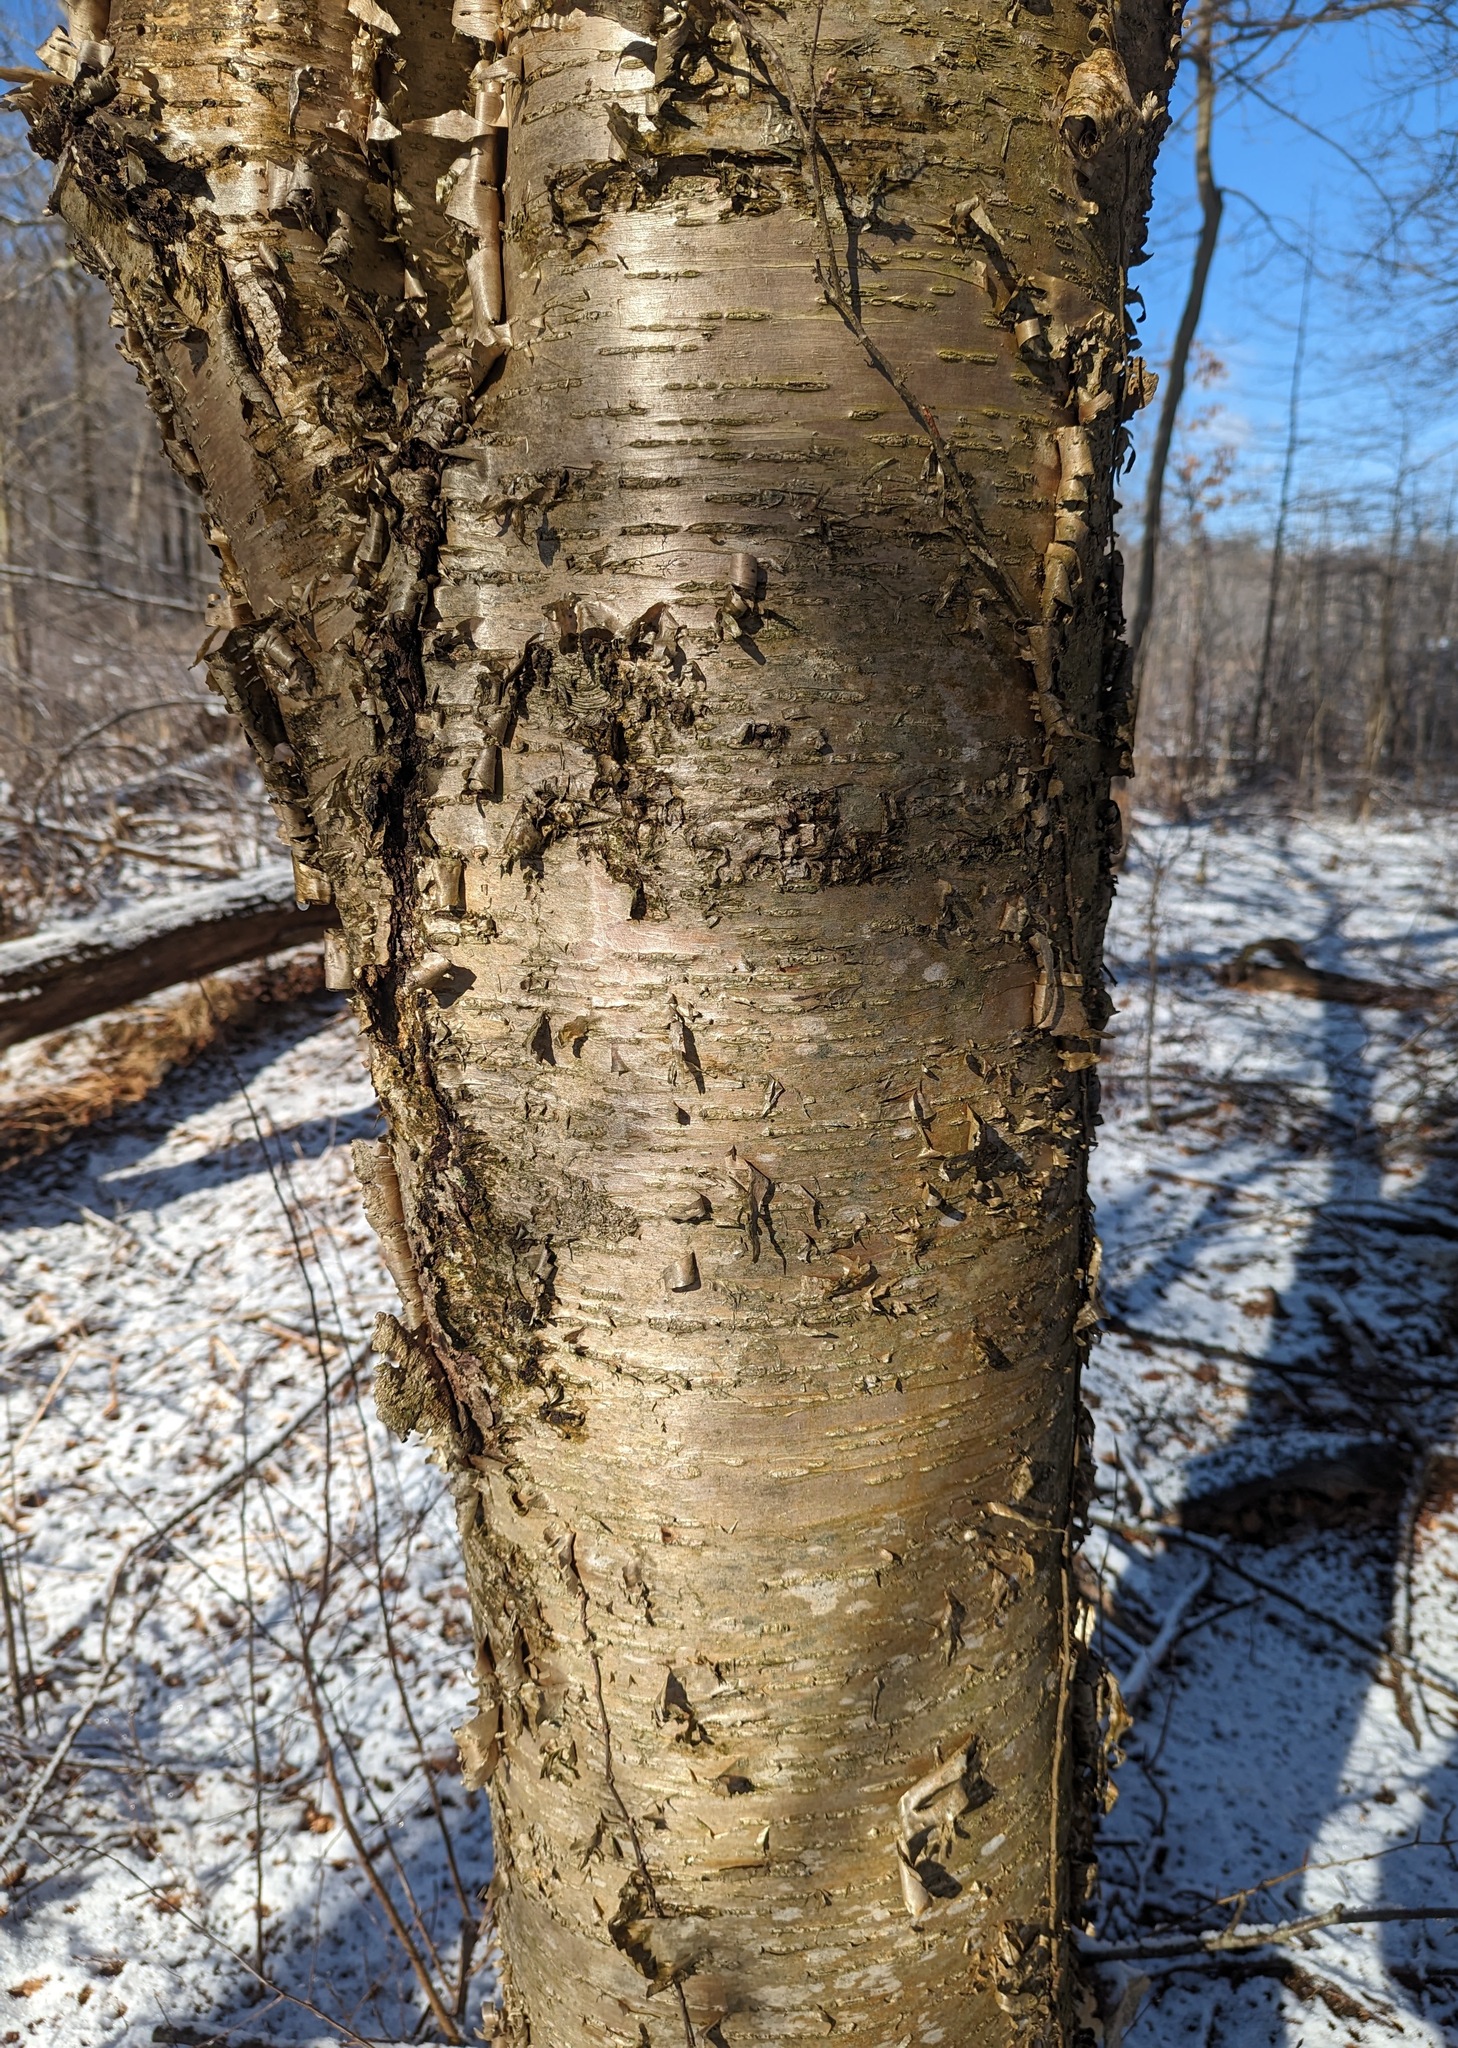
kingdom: Plantae
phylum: Tracheophyta
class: Magnoliopsida
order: Fagales
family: Betulaceae
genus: Betula
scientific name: Betula alleghaniensis
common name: Yellow birch
